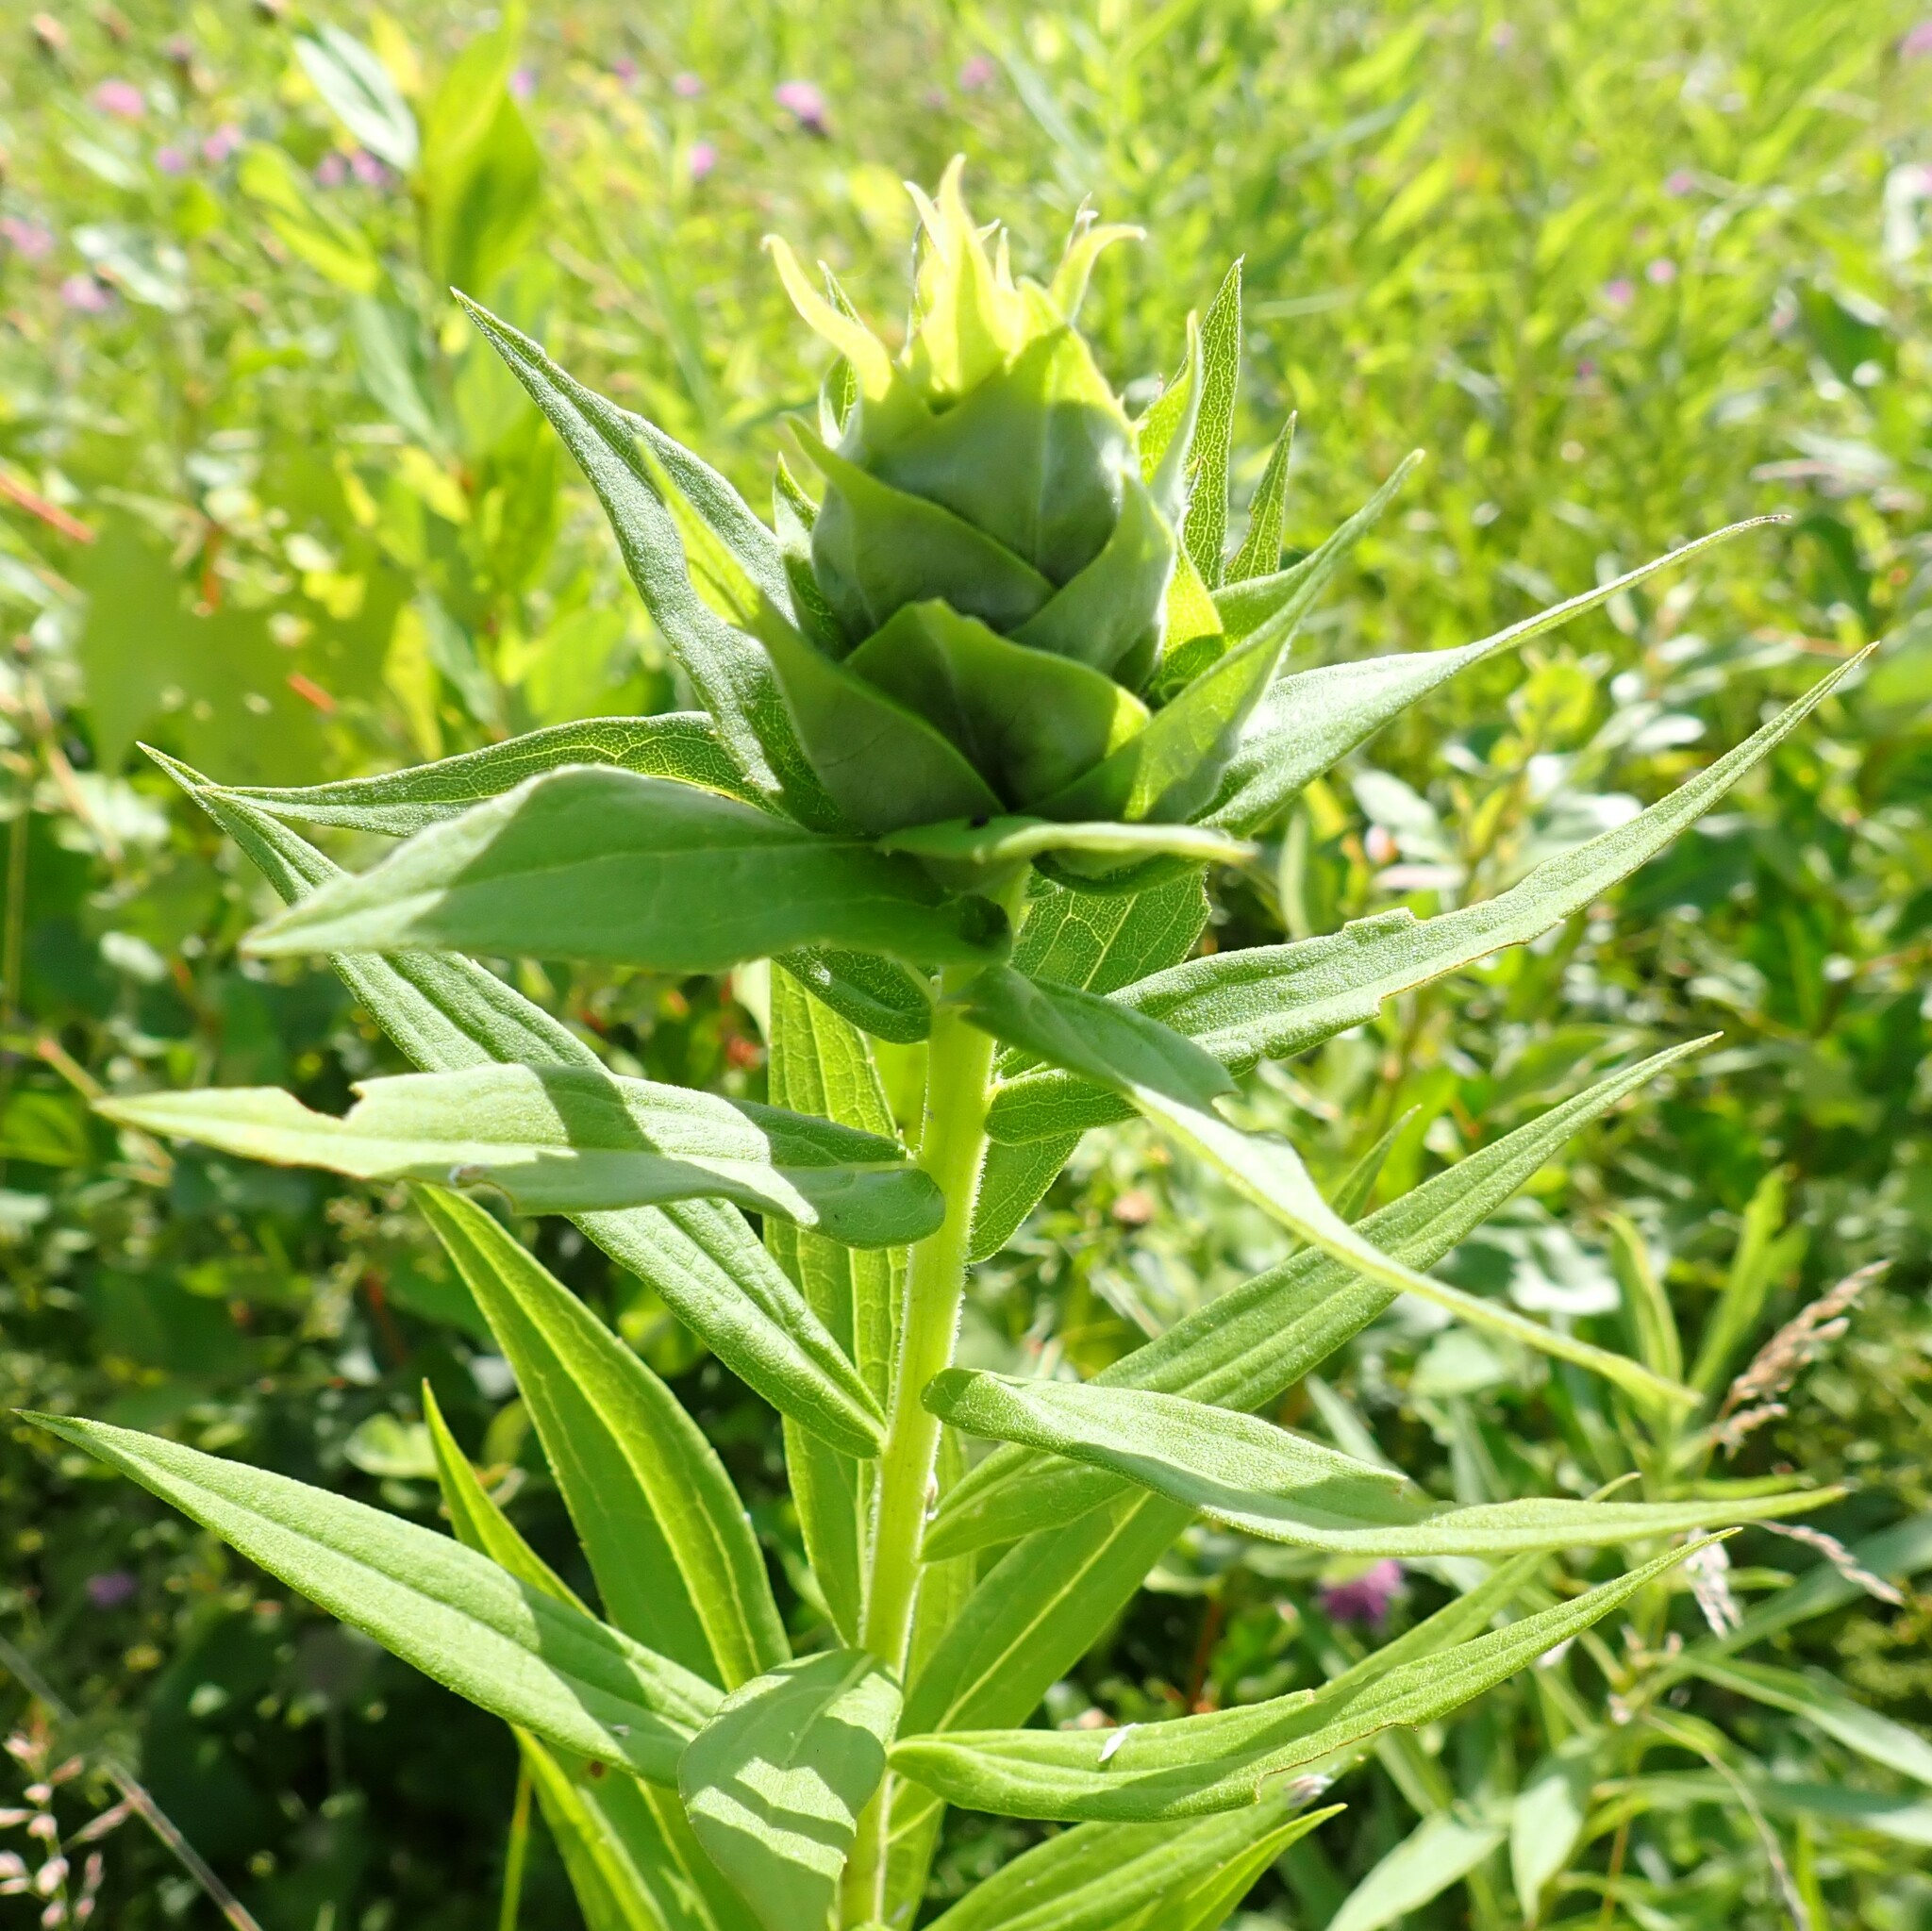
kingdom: Animalia
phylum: Arthropoda
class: Insecta
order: Diptera
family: Cecidomyiidae
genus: Rhopalomyia
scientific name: Rhopalomyia solidaginis
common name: Goldenrod bunch gall midge
